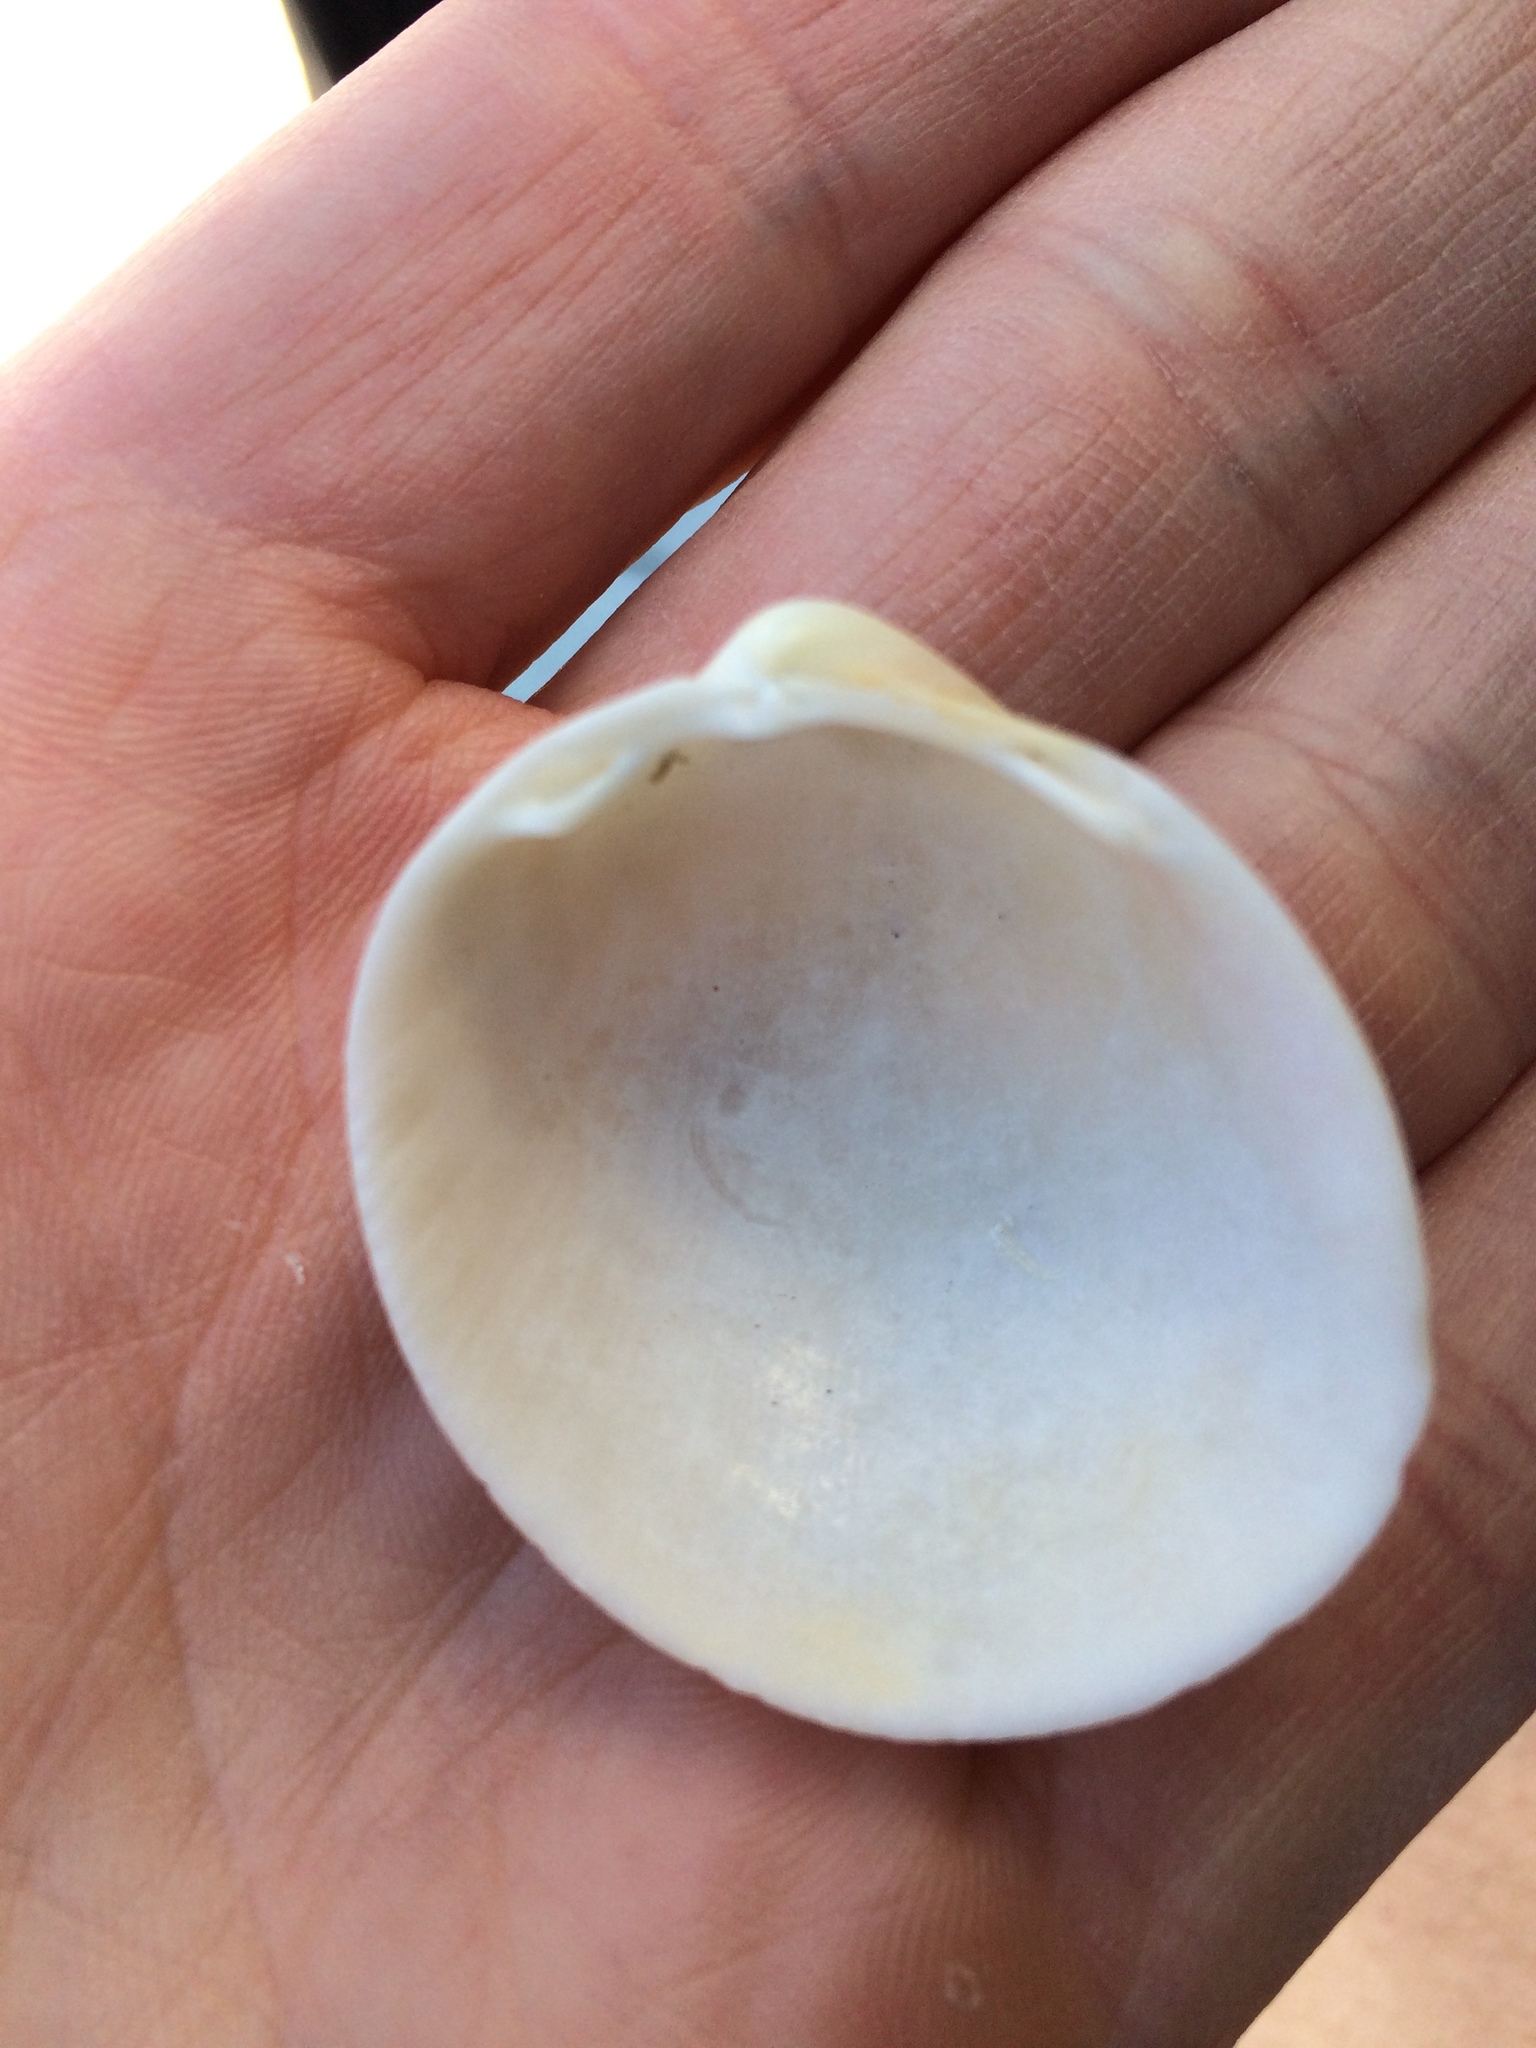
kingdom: Animalia
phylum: Mollusca
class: Bivalvia
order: Cardiida
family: Cardiidae
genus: Laevicardium
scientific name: Laevicardium serratum
